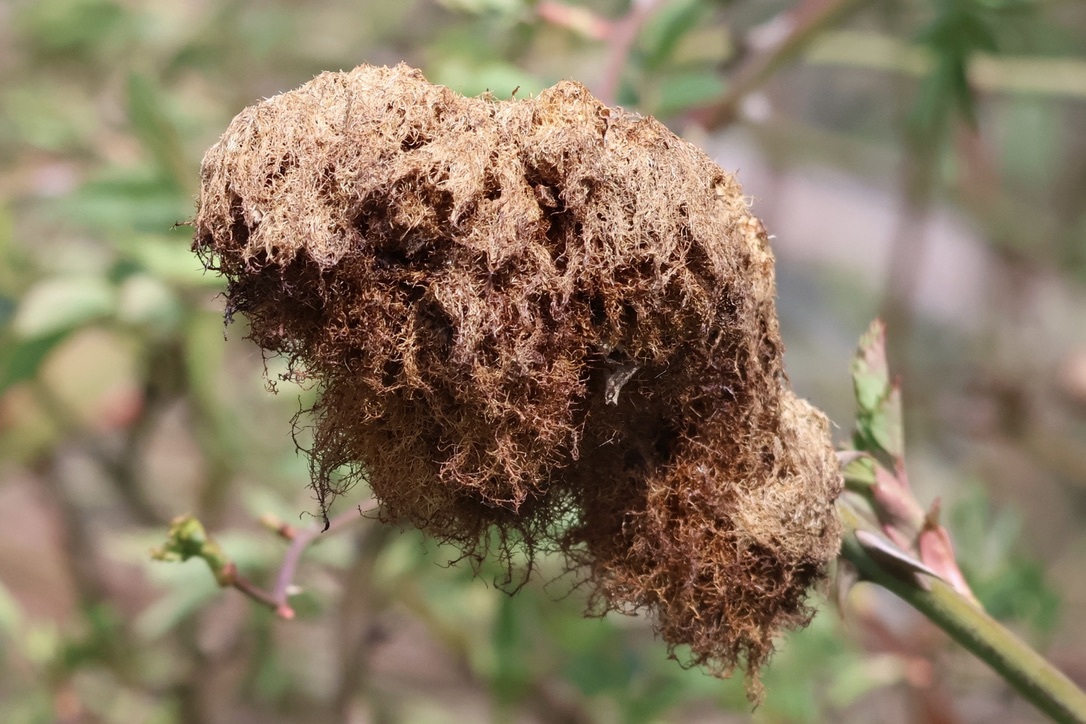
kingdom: Animalia
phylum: Arthropoda
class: Insecta
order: Hymenoptera
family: Cynipidae
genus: Diplolepis
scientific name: Diplolepis rosae
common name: Bedeguar gall
